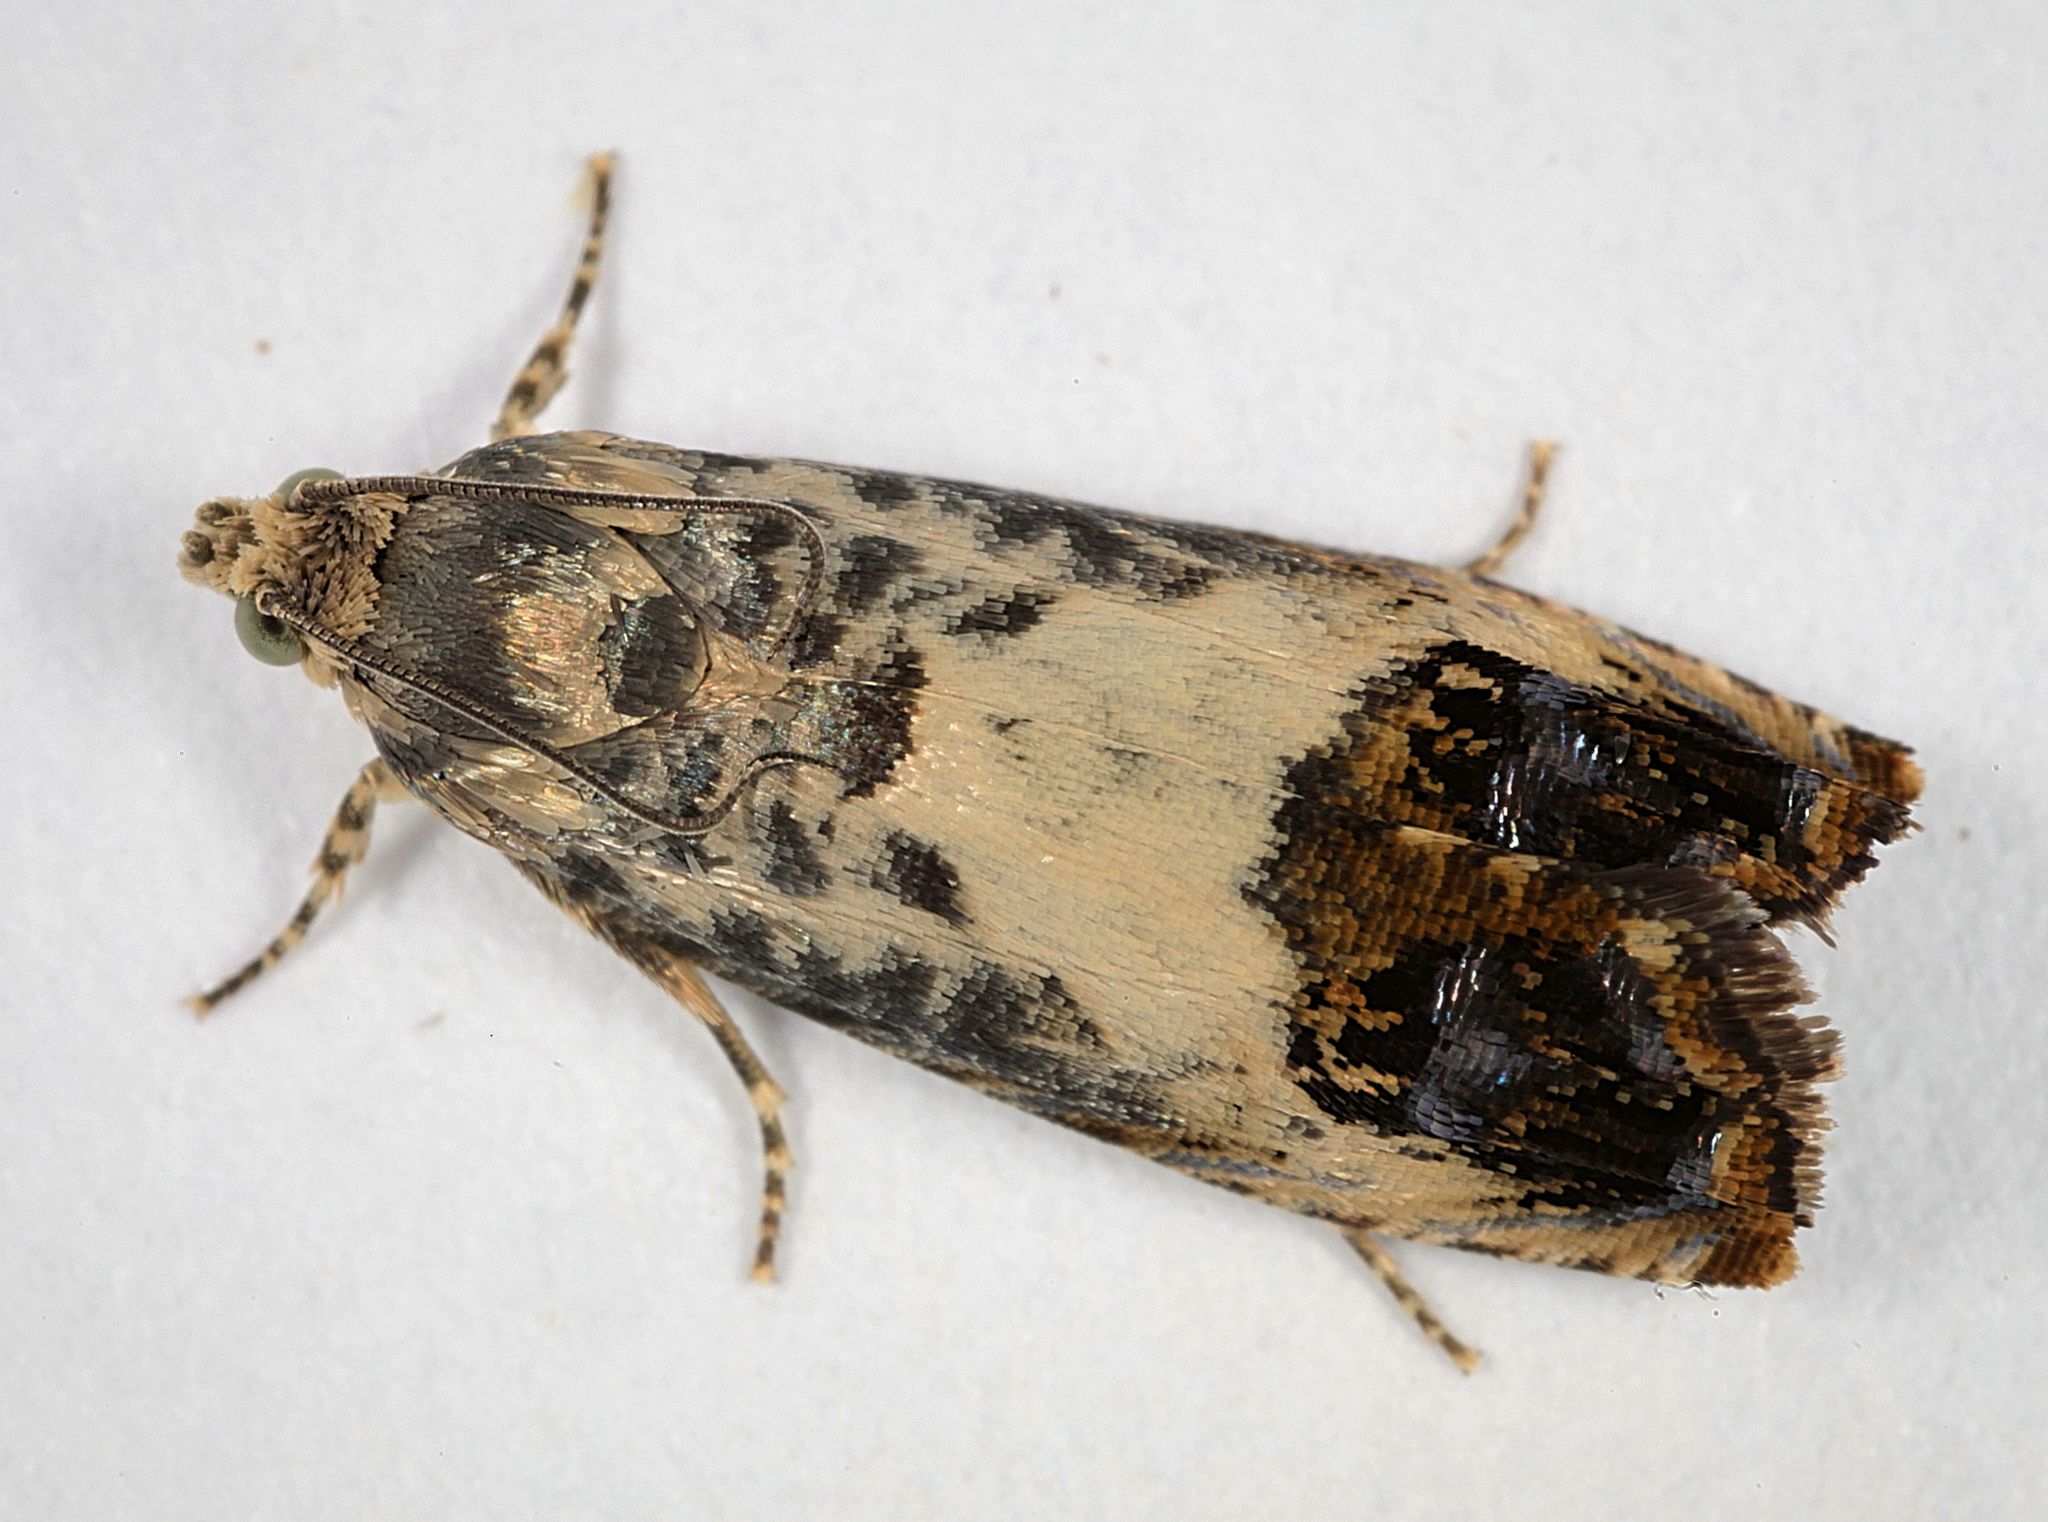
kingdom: Animalia
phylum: Arthropoda
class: Insecta
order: Lepidoptera
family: Tortricidae
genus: Pammene
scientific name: Pammene fasciana
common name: Acorn piercer
